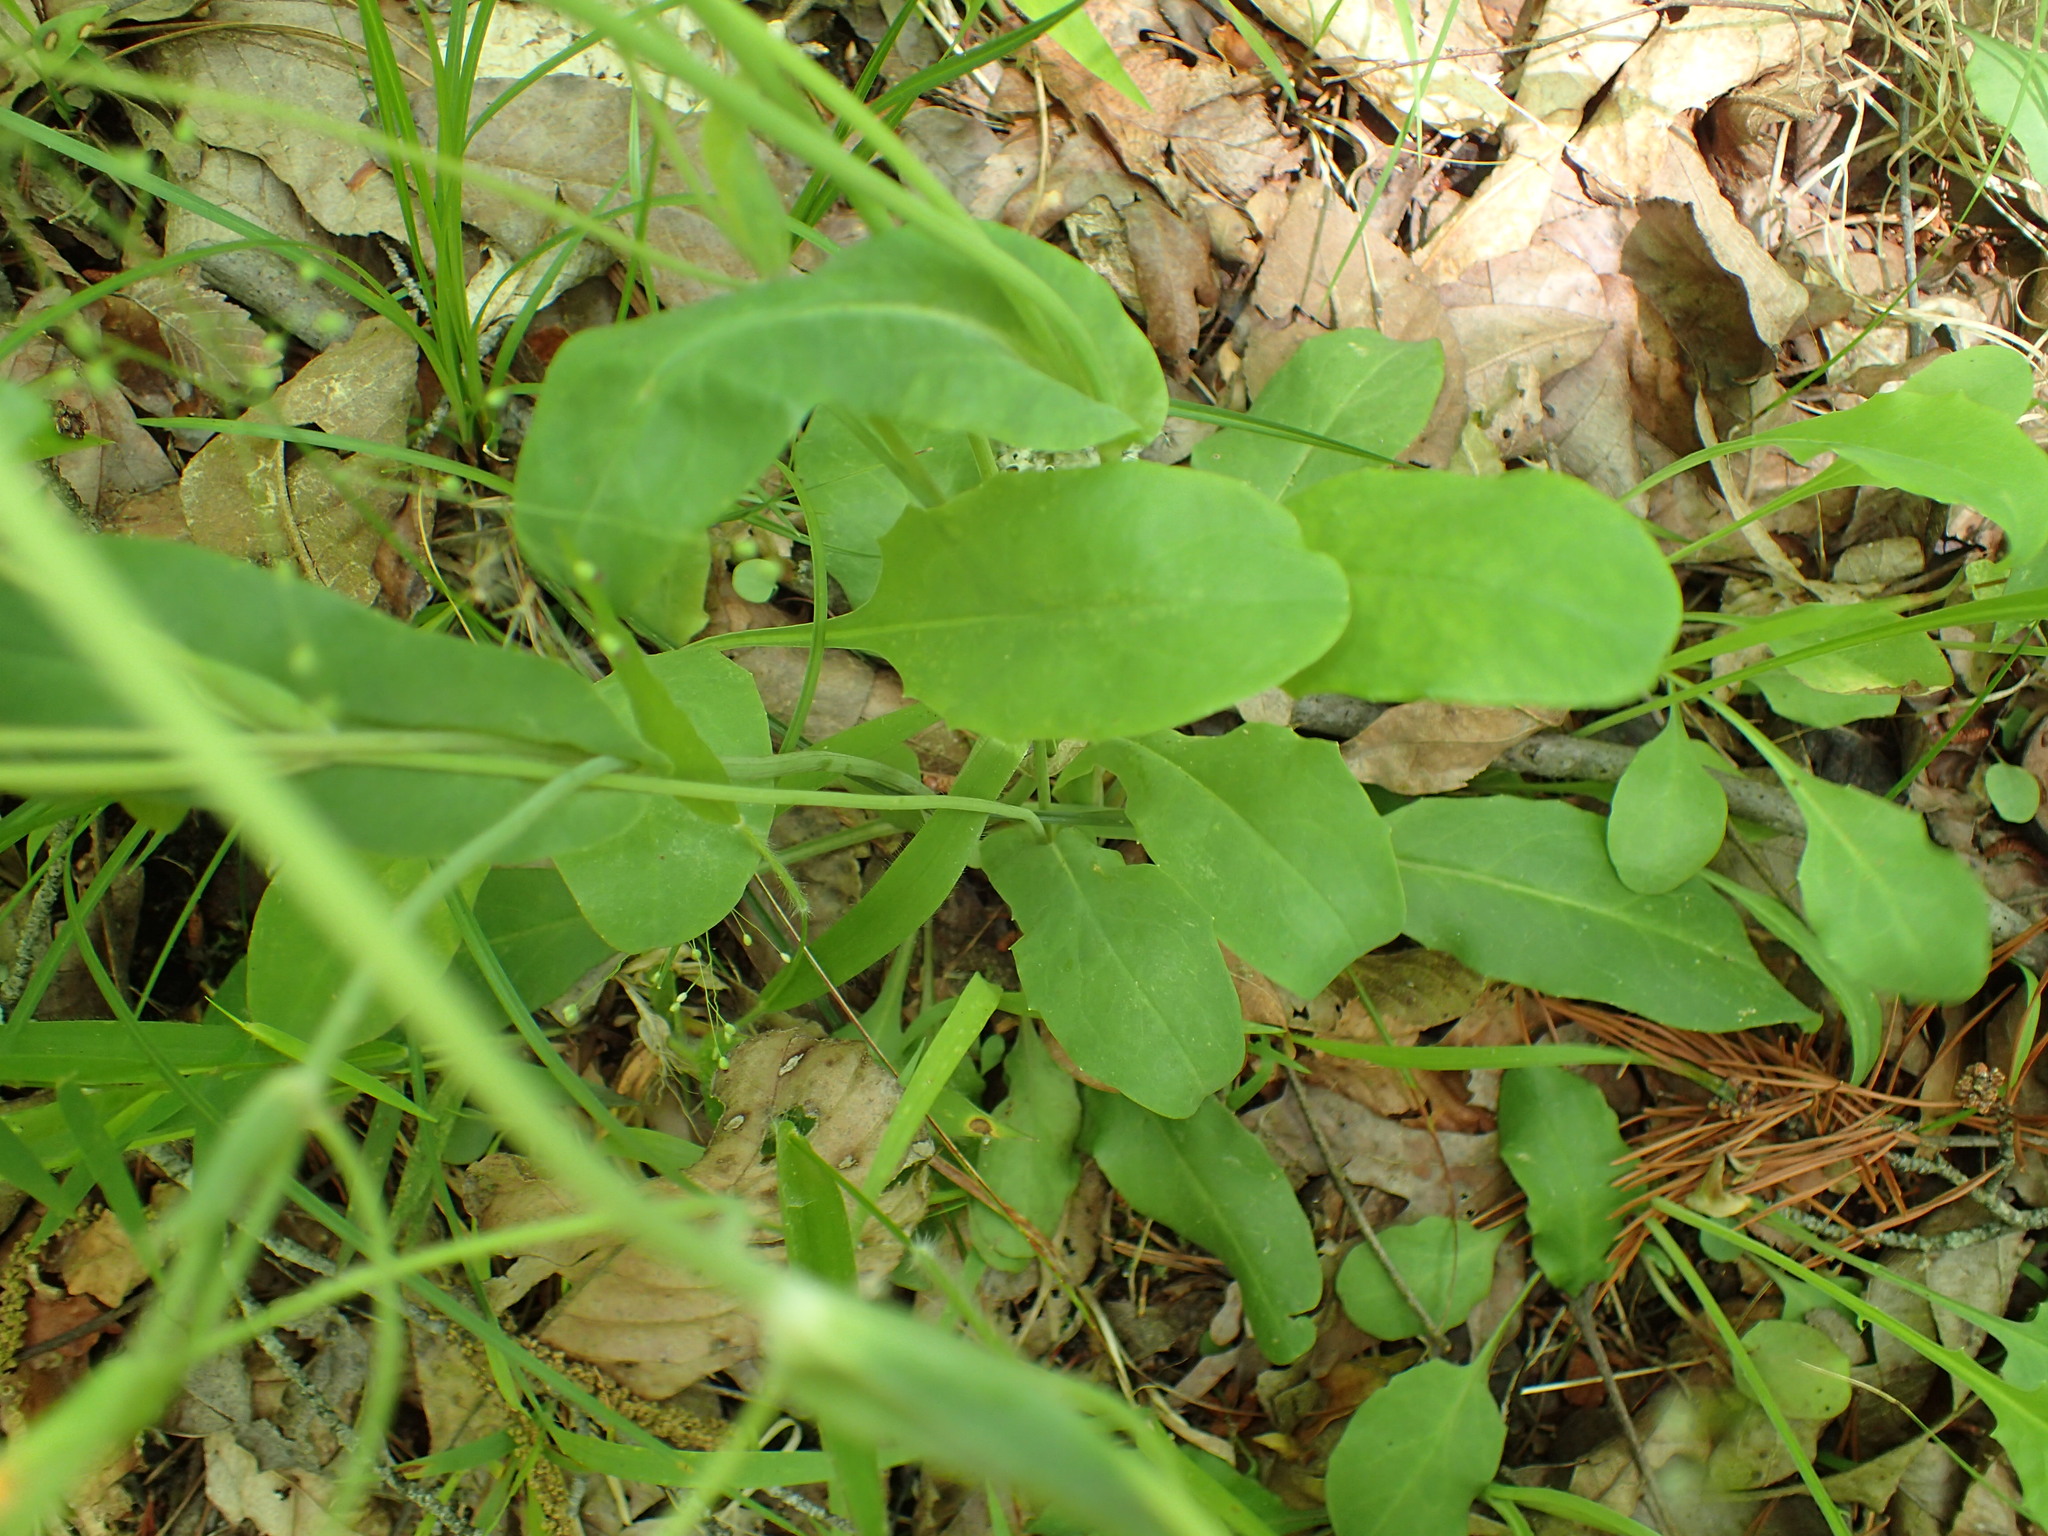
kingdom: Plantae
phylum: Tracheophyta
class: Magnoliopsida
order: Asterales
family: Asteraceae
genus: Krigia
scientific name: Krigia biflora
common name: Orange dwarf-dandelion
